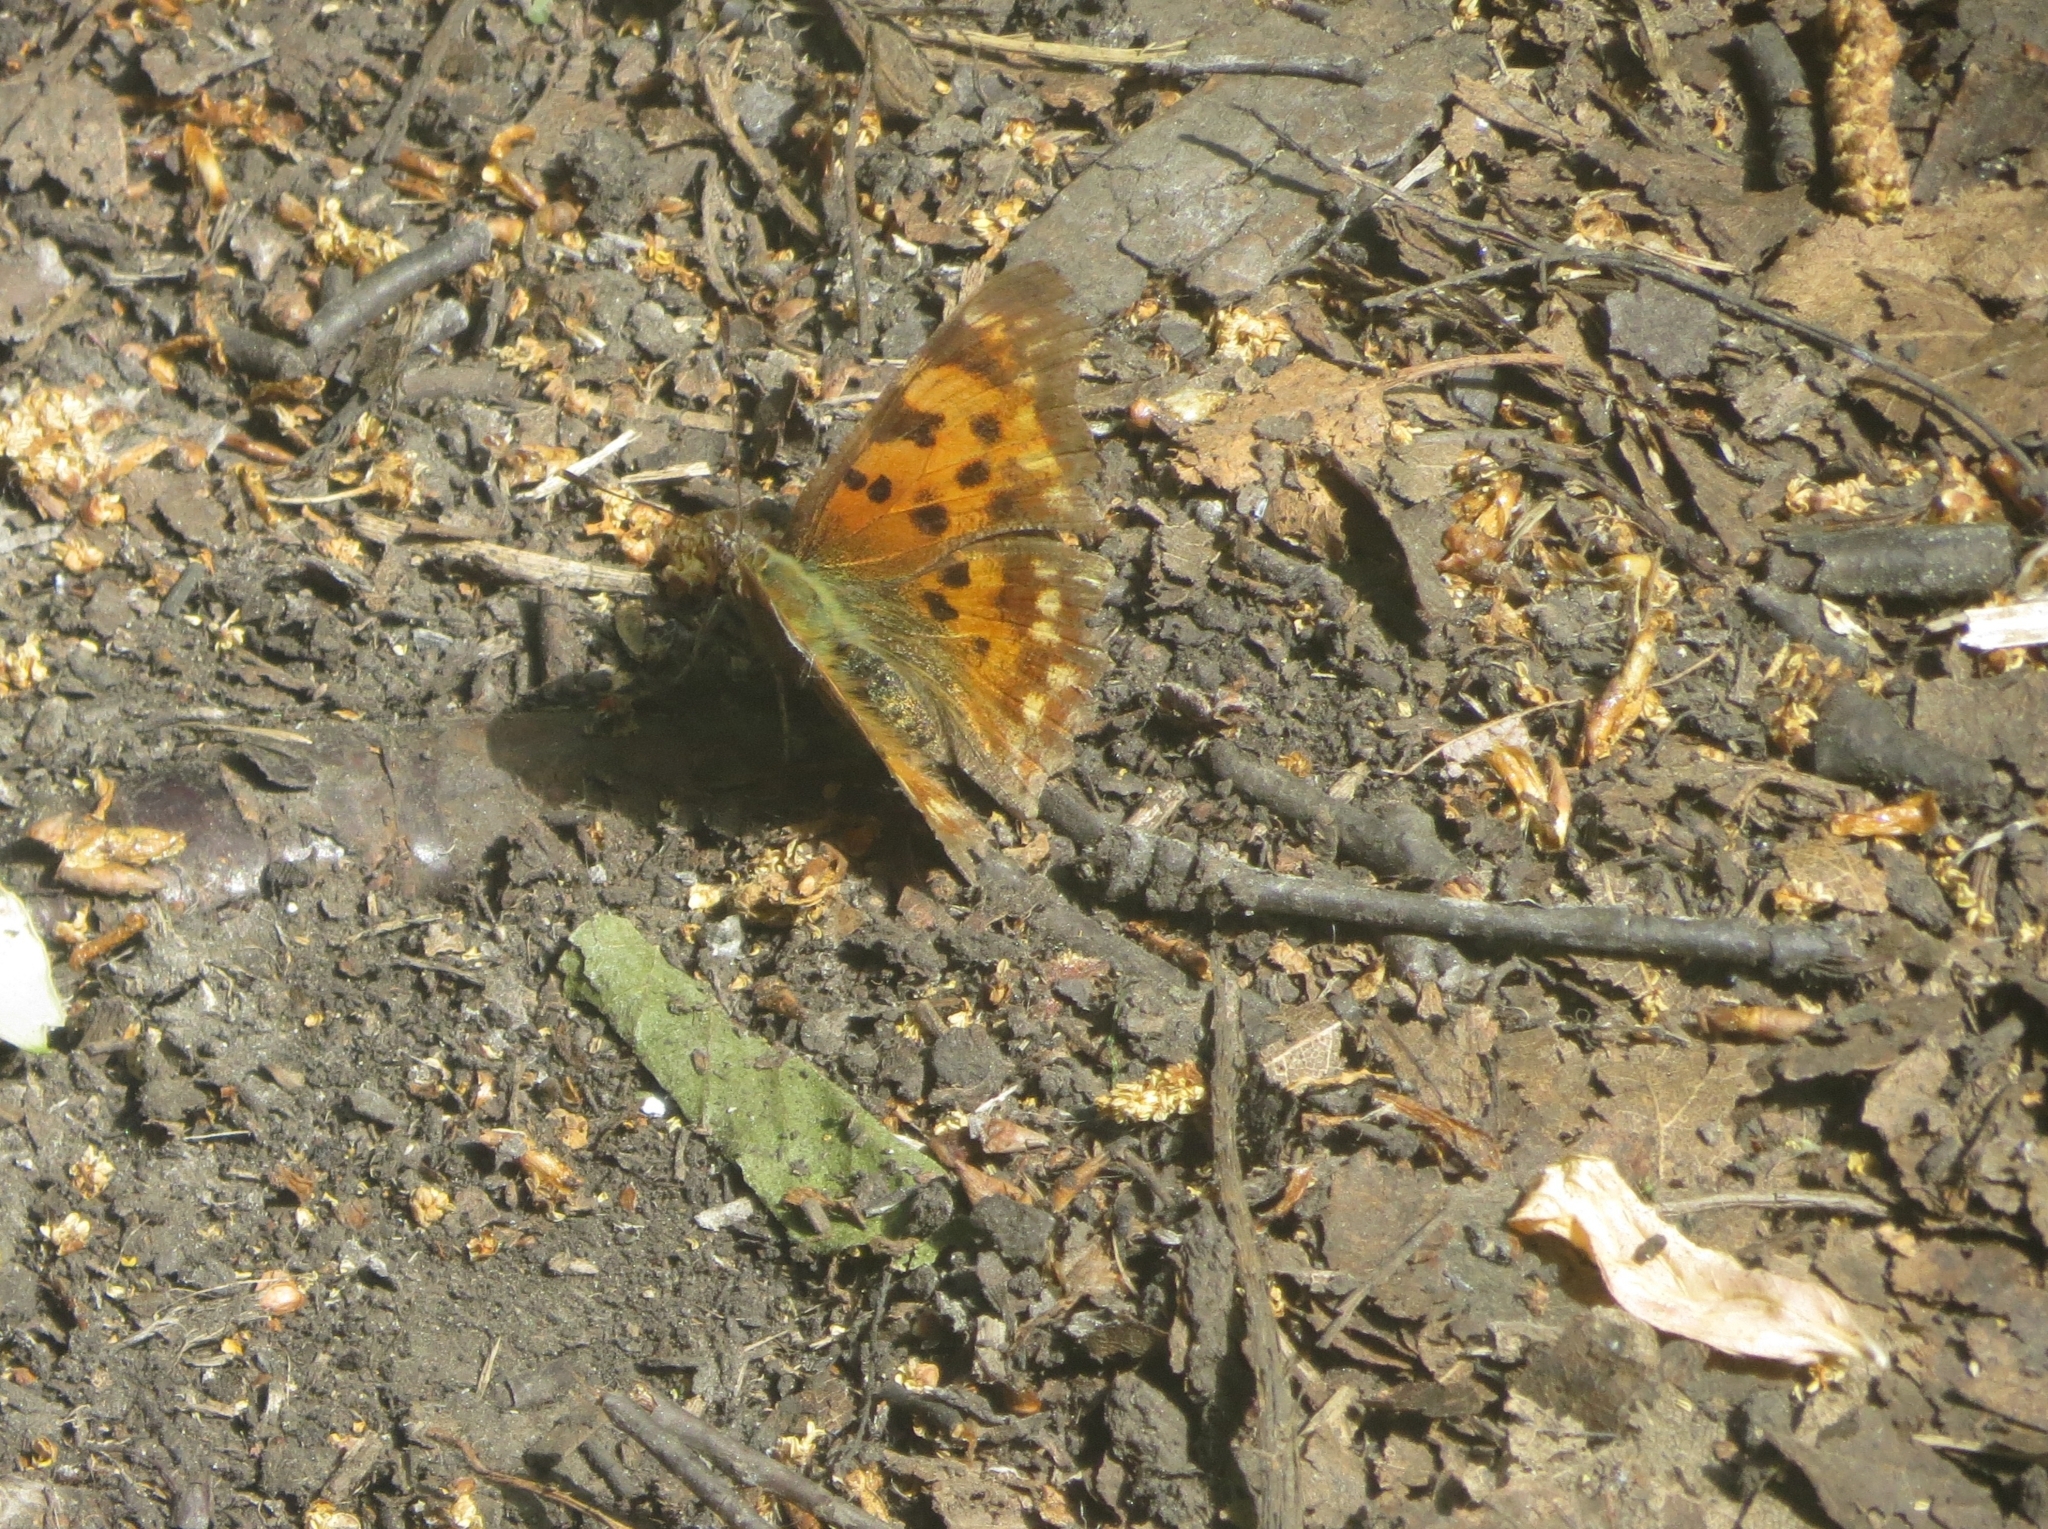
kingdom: Animalia
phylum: Arthropoda
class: Insecta
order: Lepidoptera
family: Nymphalidae
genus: Polygonia
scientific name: Polygonia c-album
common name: Comma
